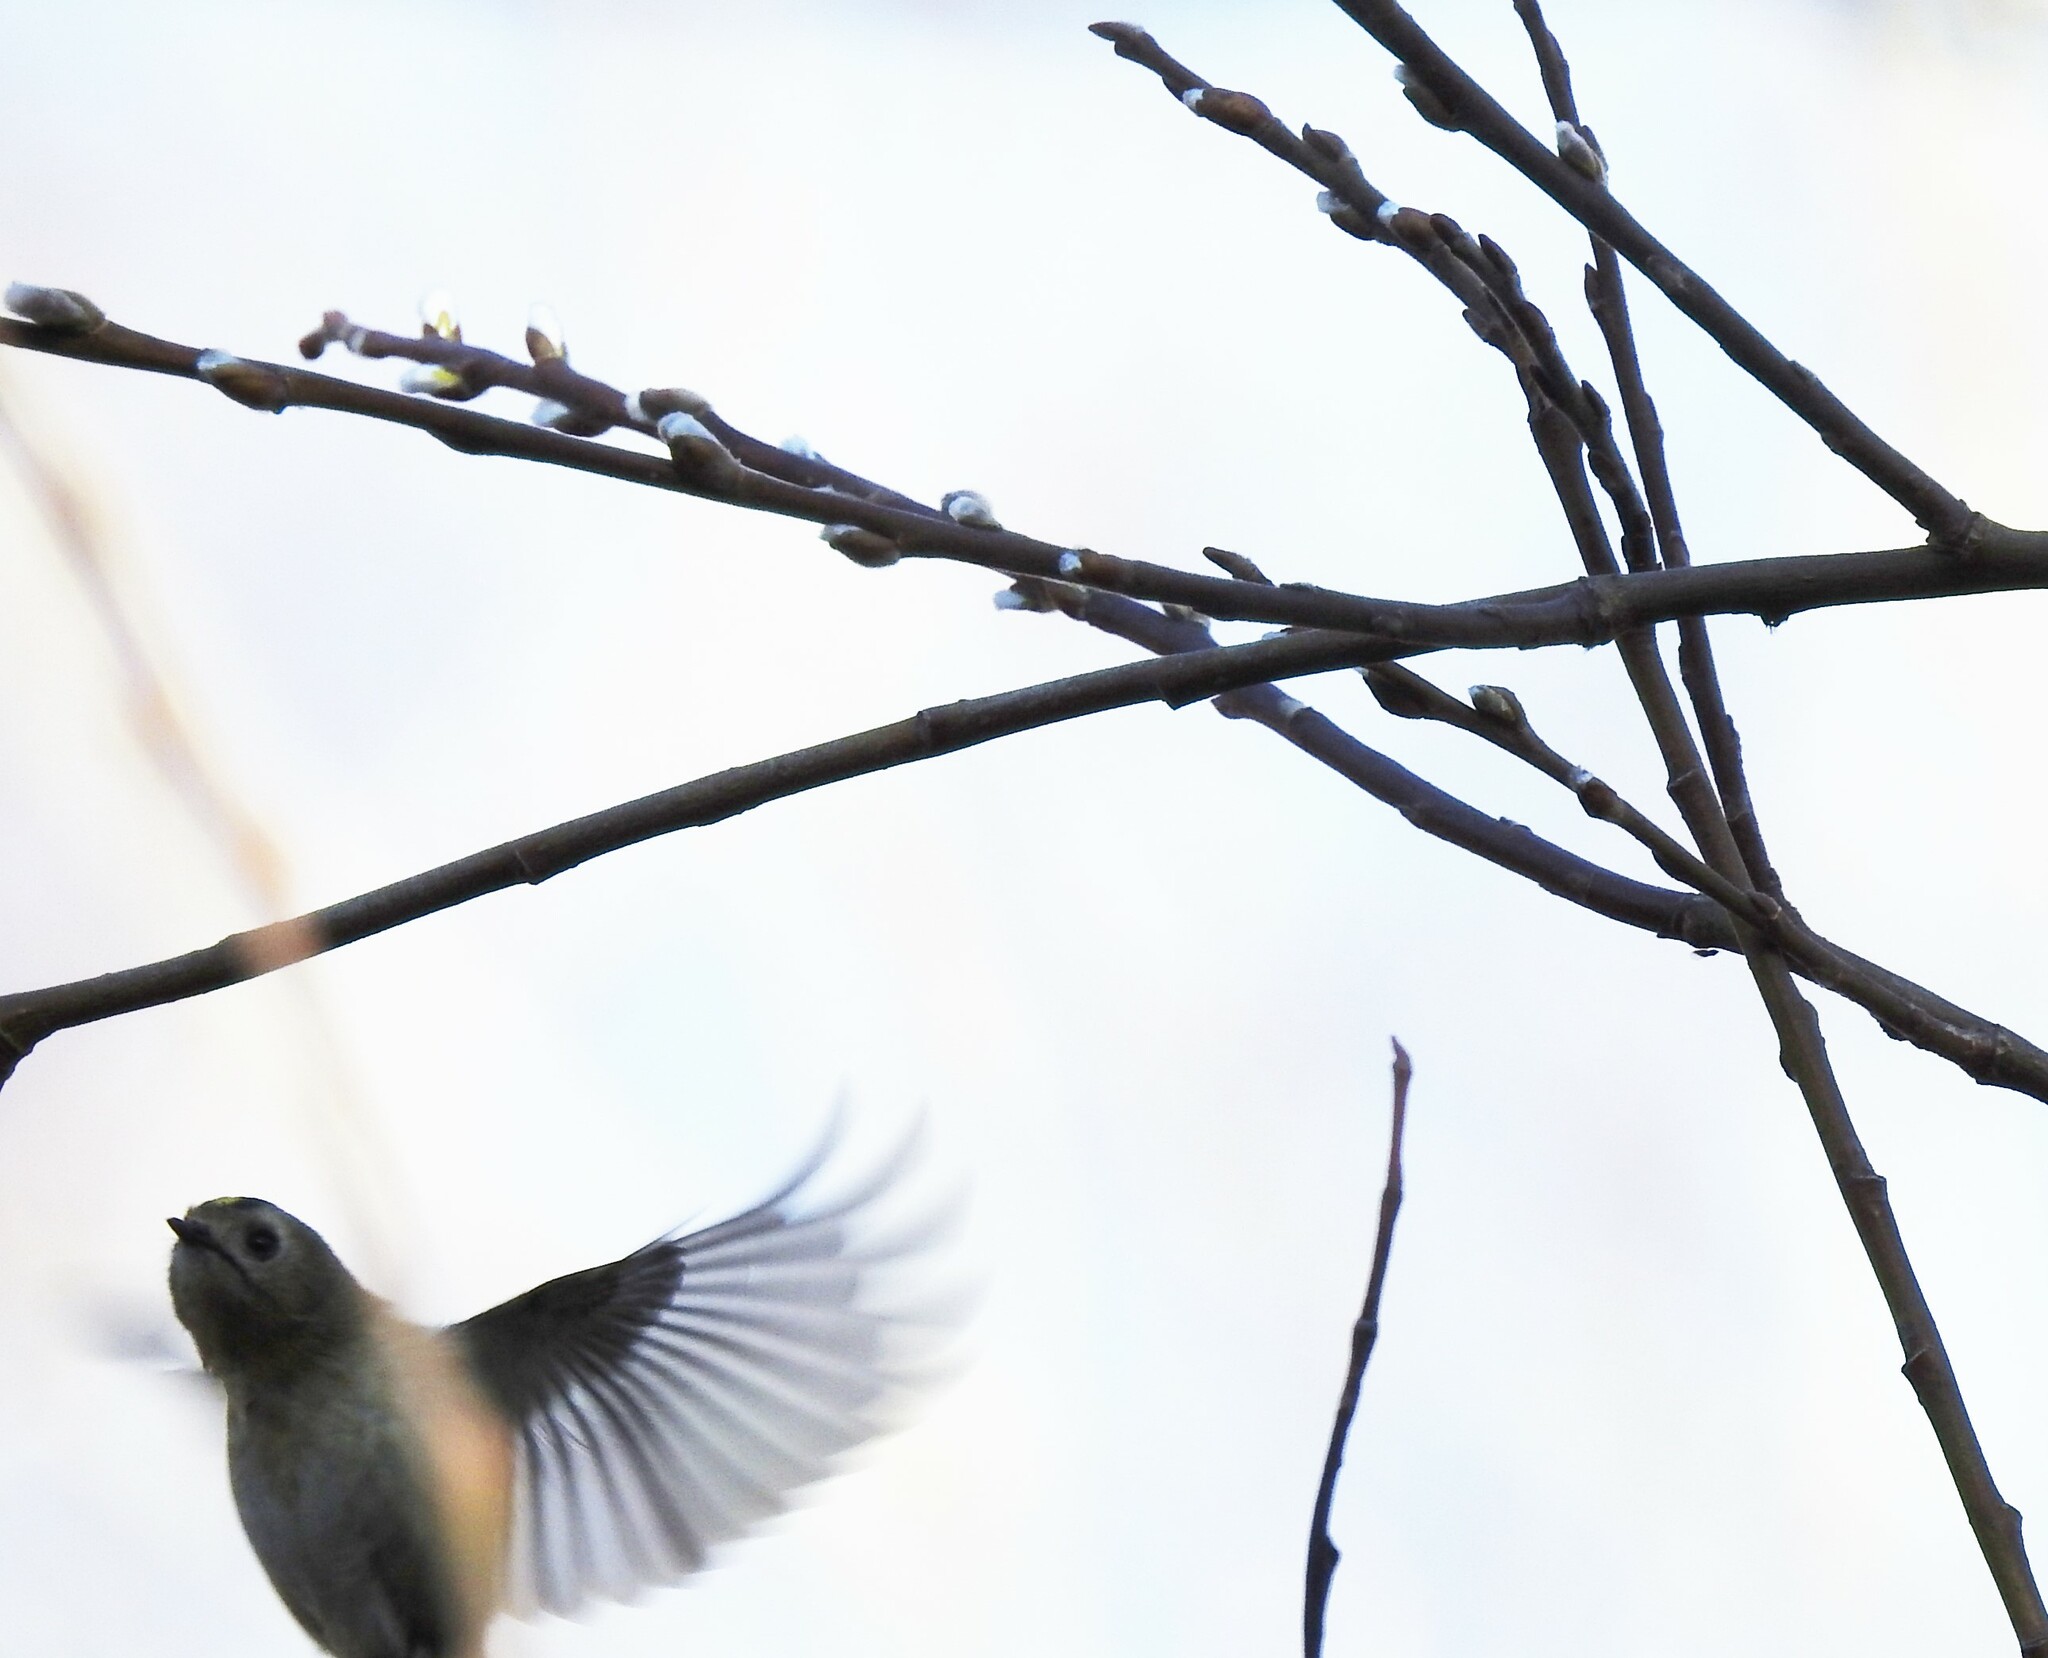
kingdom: Animalia
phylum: Chordata
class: Aves
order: Passeriformes
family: Regulidae
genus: Regulus
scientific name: Regulus regulus
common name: Goldcrest
